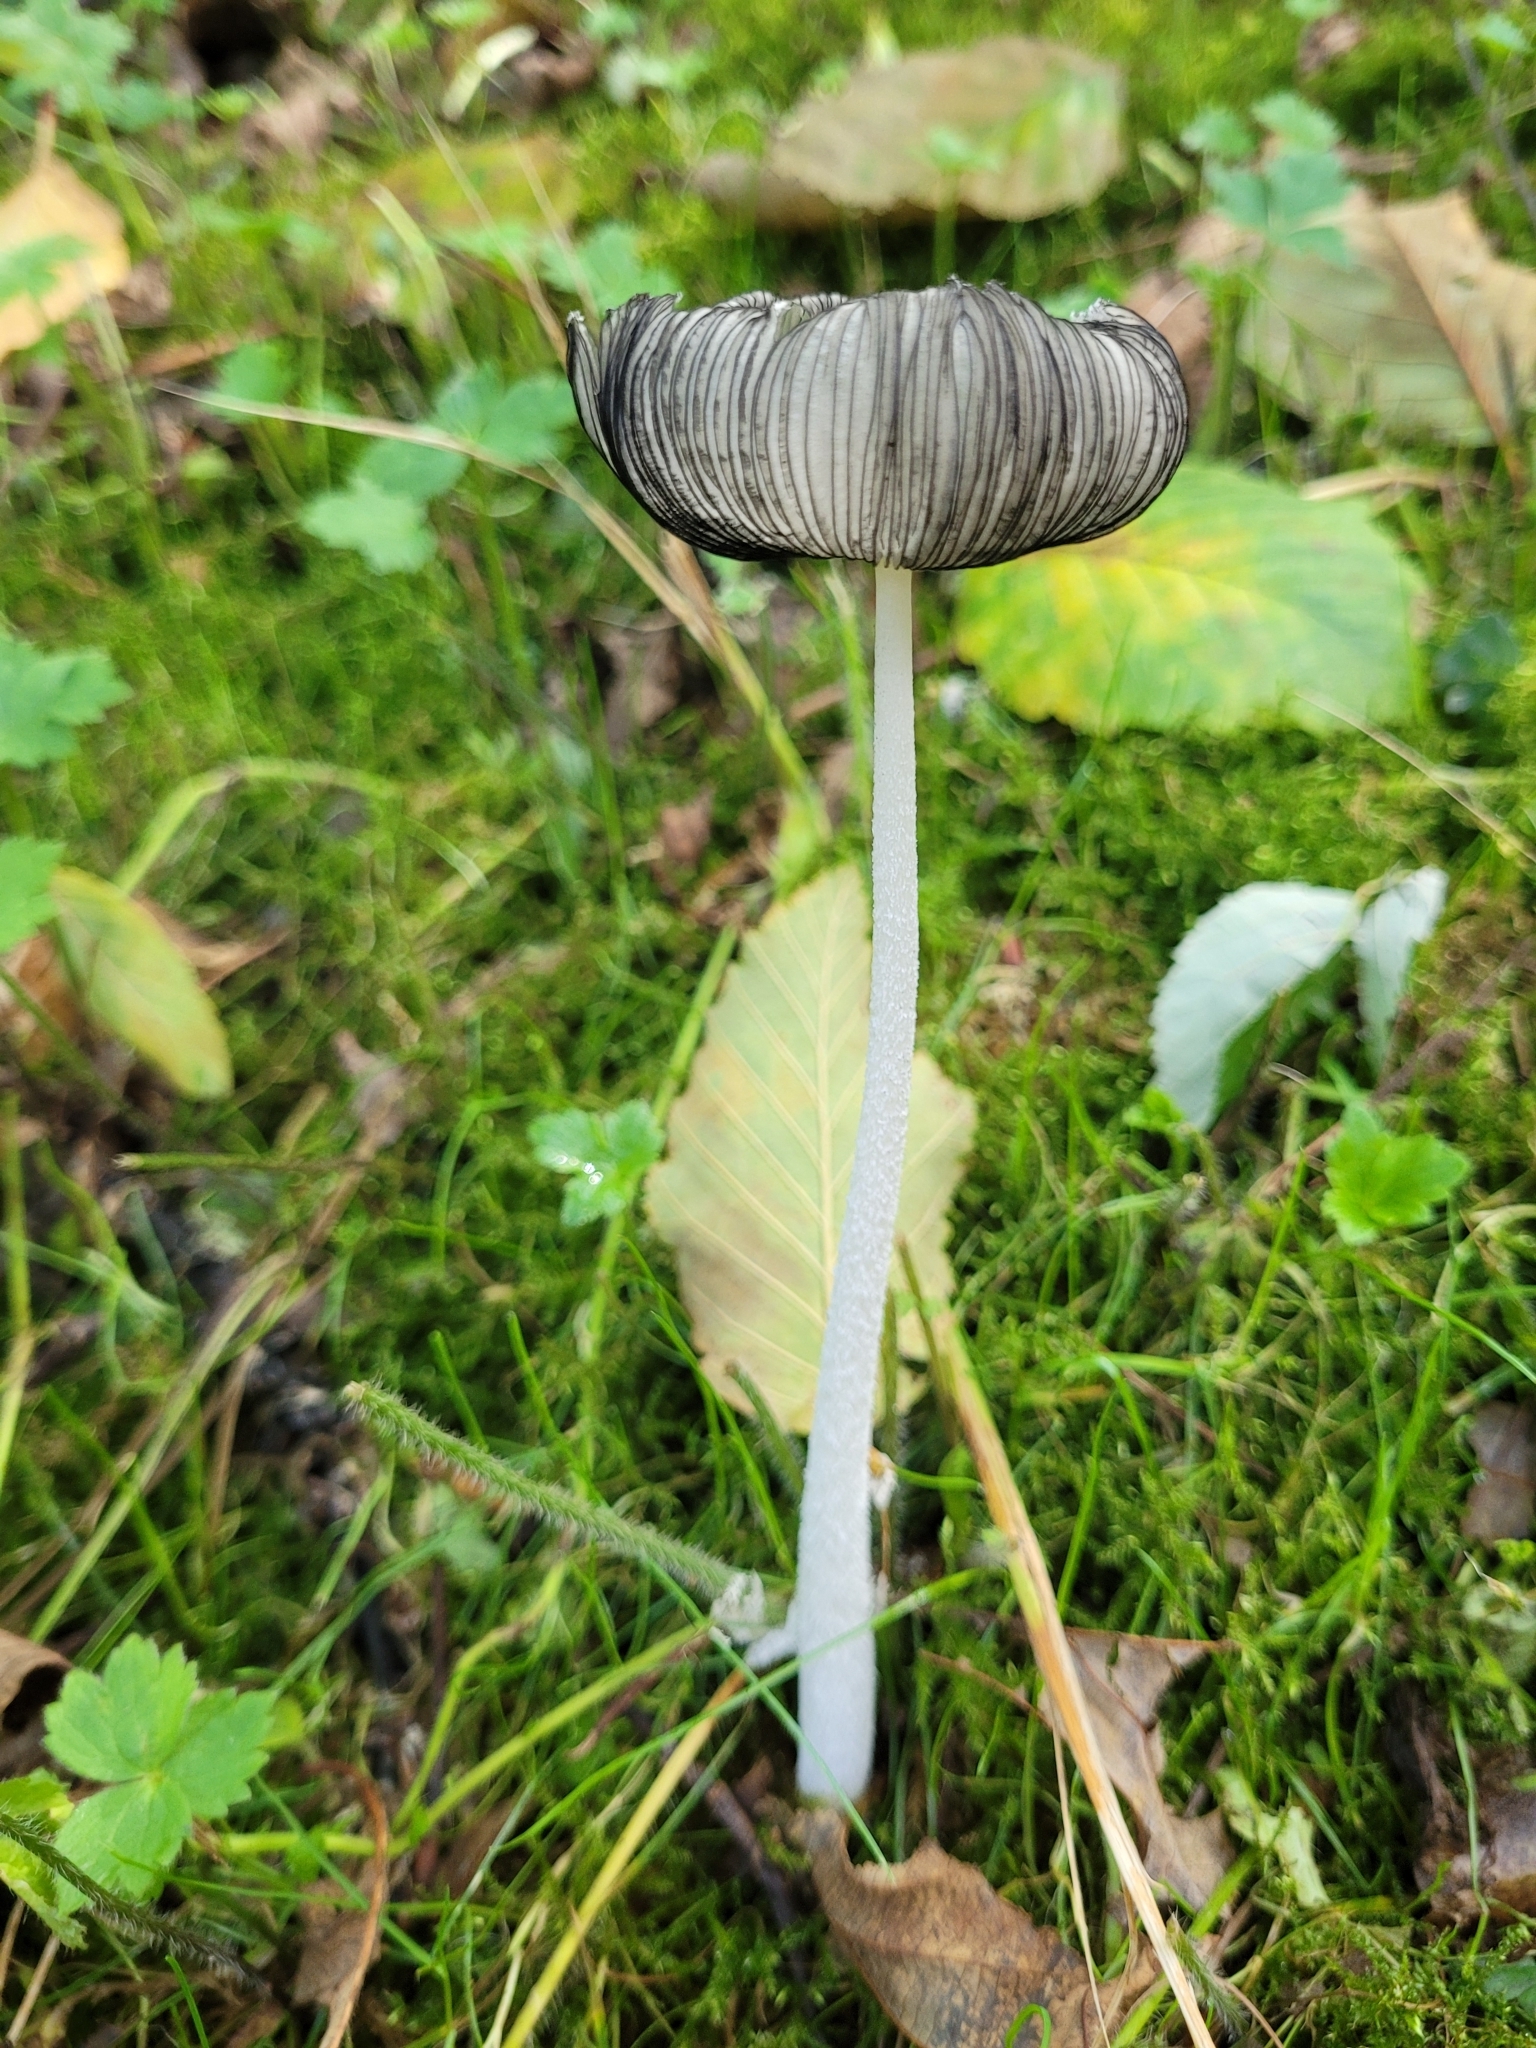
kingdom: Fungi
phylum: Basidiomycota
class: Agaricomycetes
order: Agaricales
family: Psathyrellaceae
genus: Coprinopsis
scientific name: Coprinopsis lagopus
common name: Hare'sfoot inkcap
